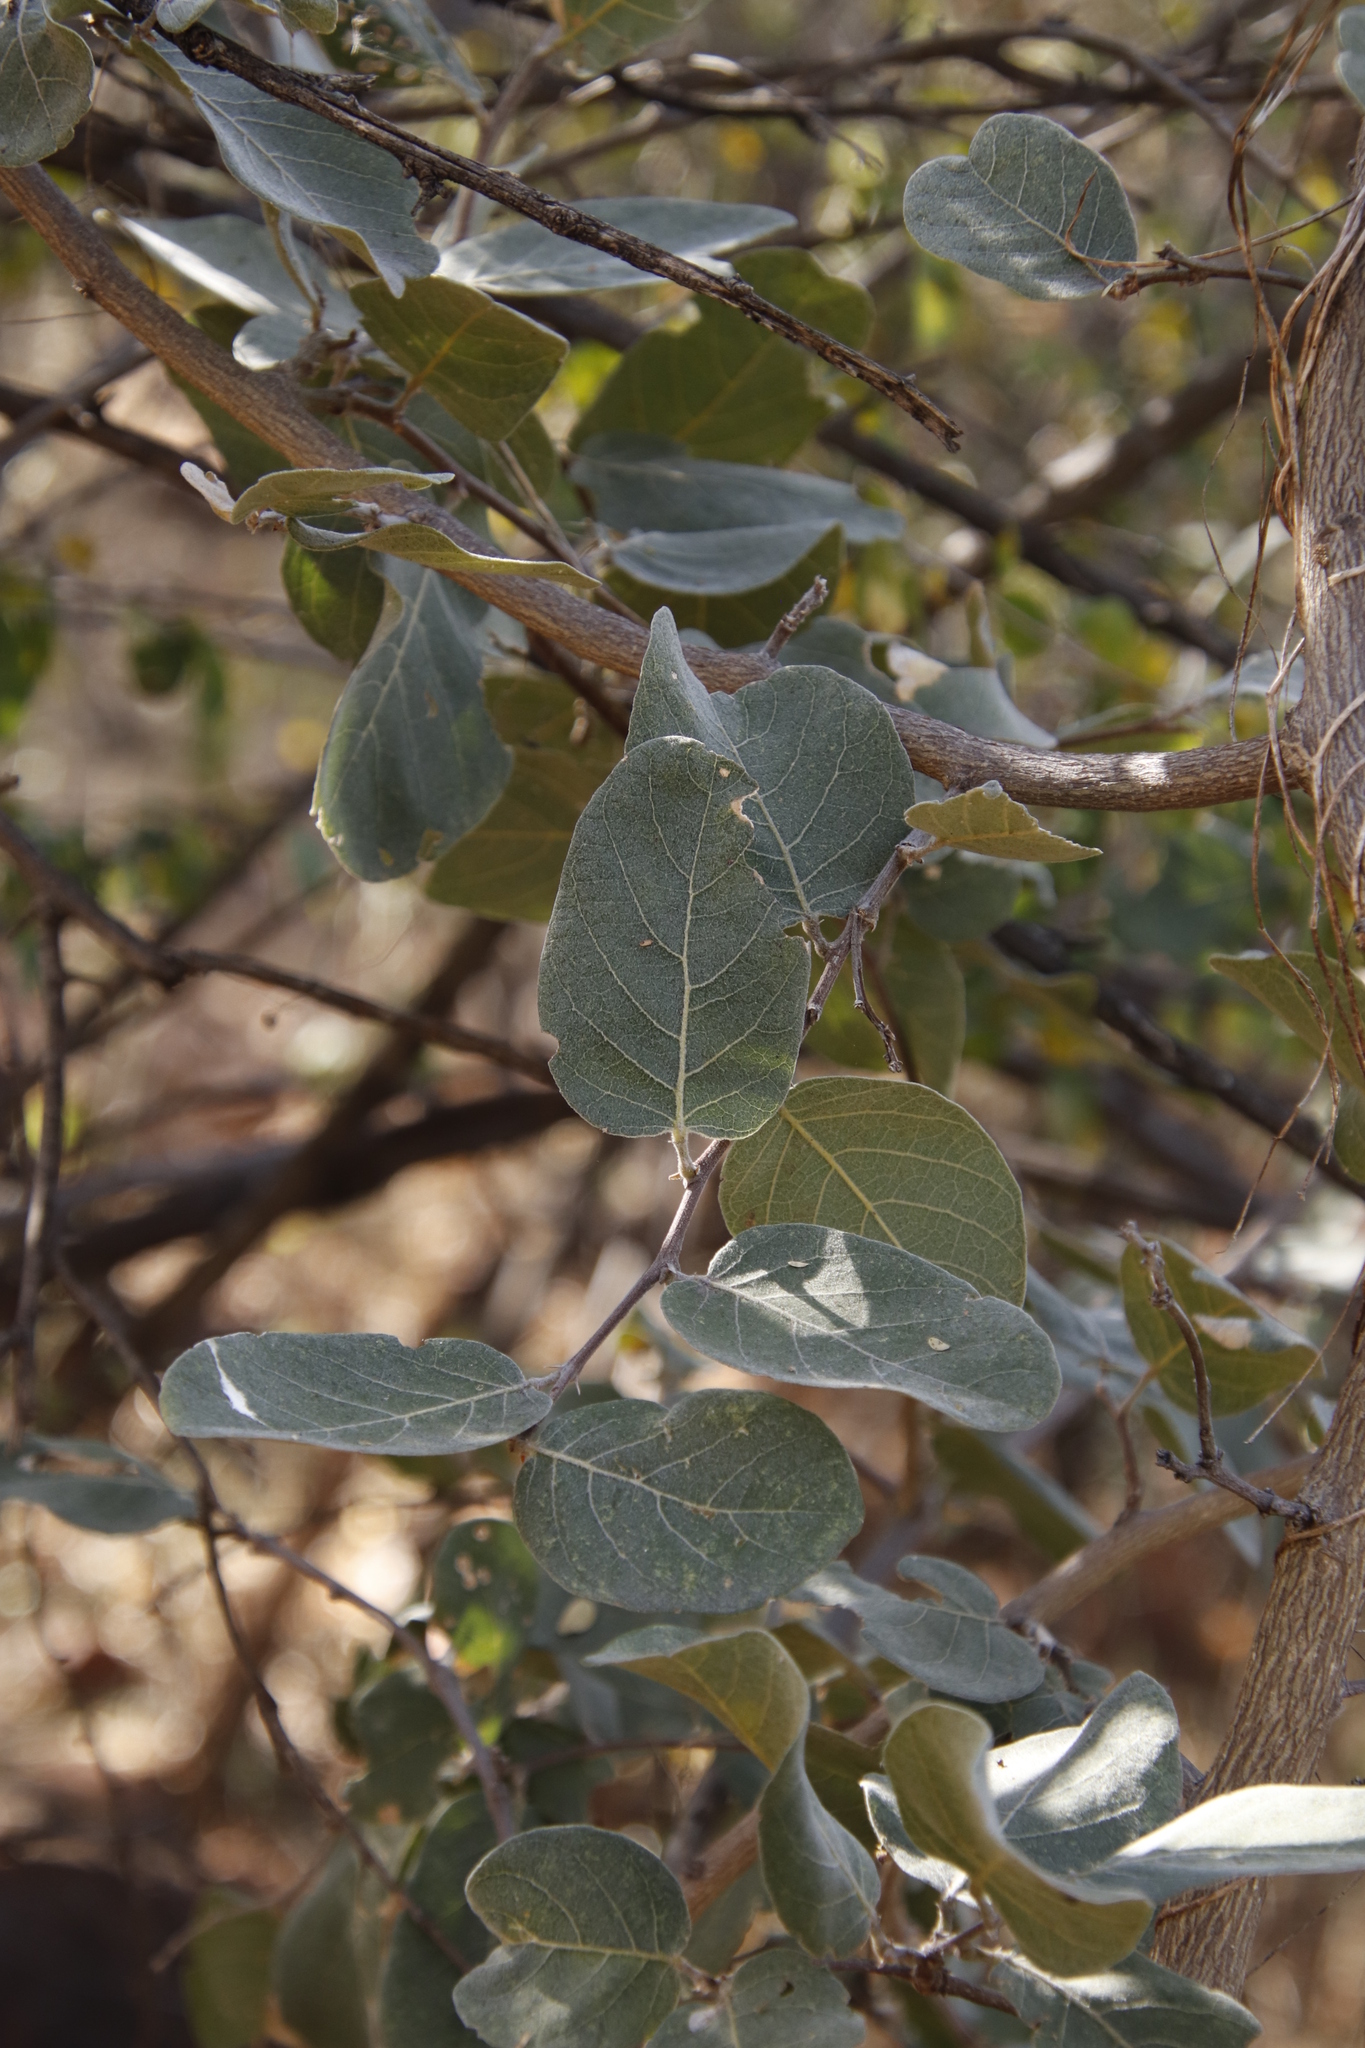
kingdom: Plantae
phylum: Tracheophyta
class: Magnoliopsida
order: Fabales
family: Fabaceae
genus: Philenoptera
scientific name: Philenoptera nelsii
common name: Kalahari apple-leaf
